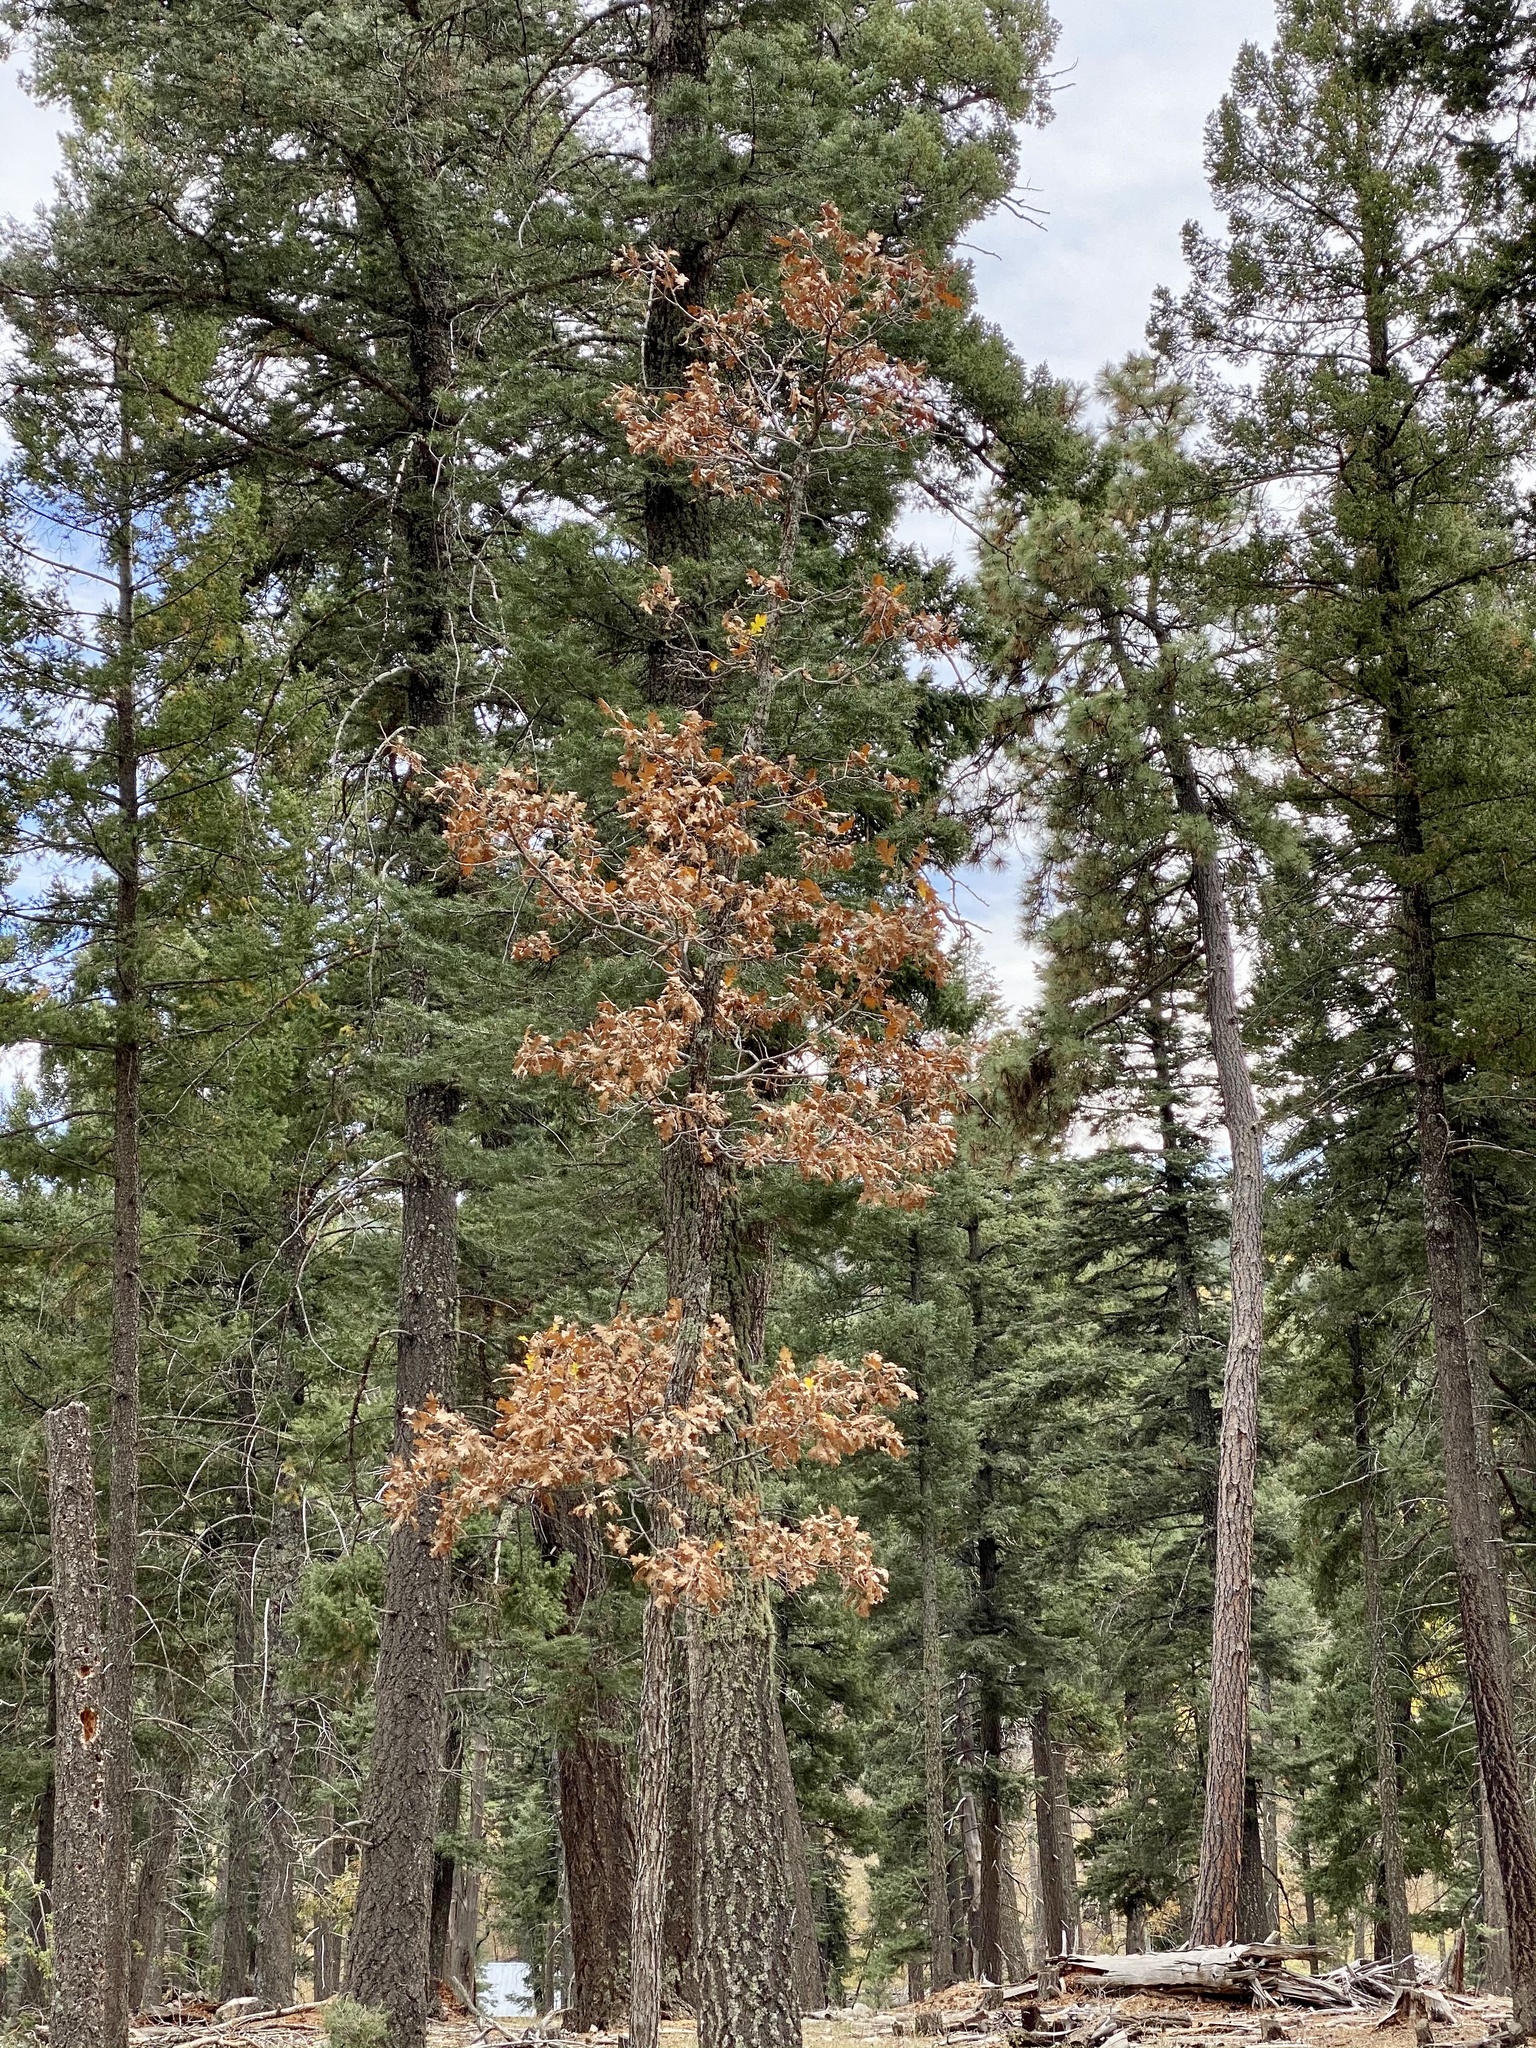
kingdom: Plantae
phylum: Tracheophyta
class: Magnoliopsida
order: Fagales
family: Fagaceae
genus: Quercus
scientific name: Quercus gambelii
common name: Gambel oak
